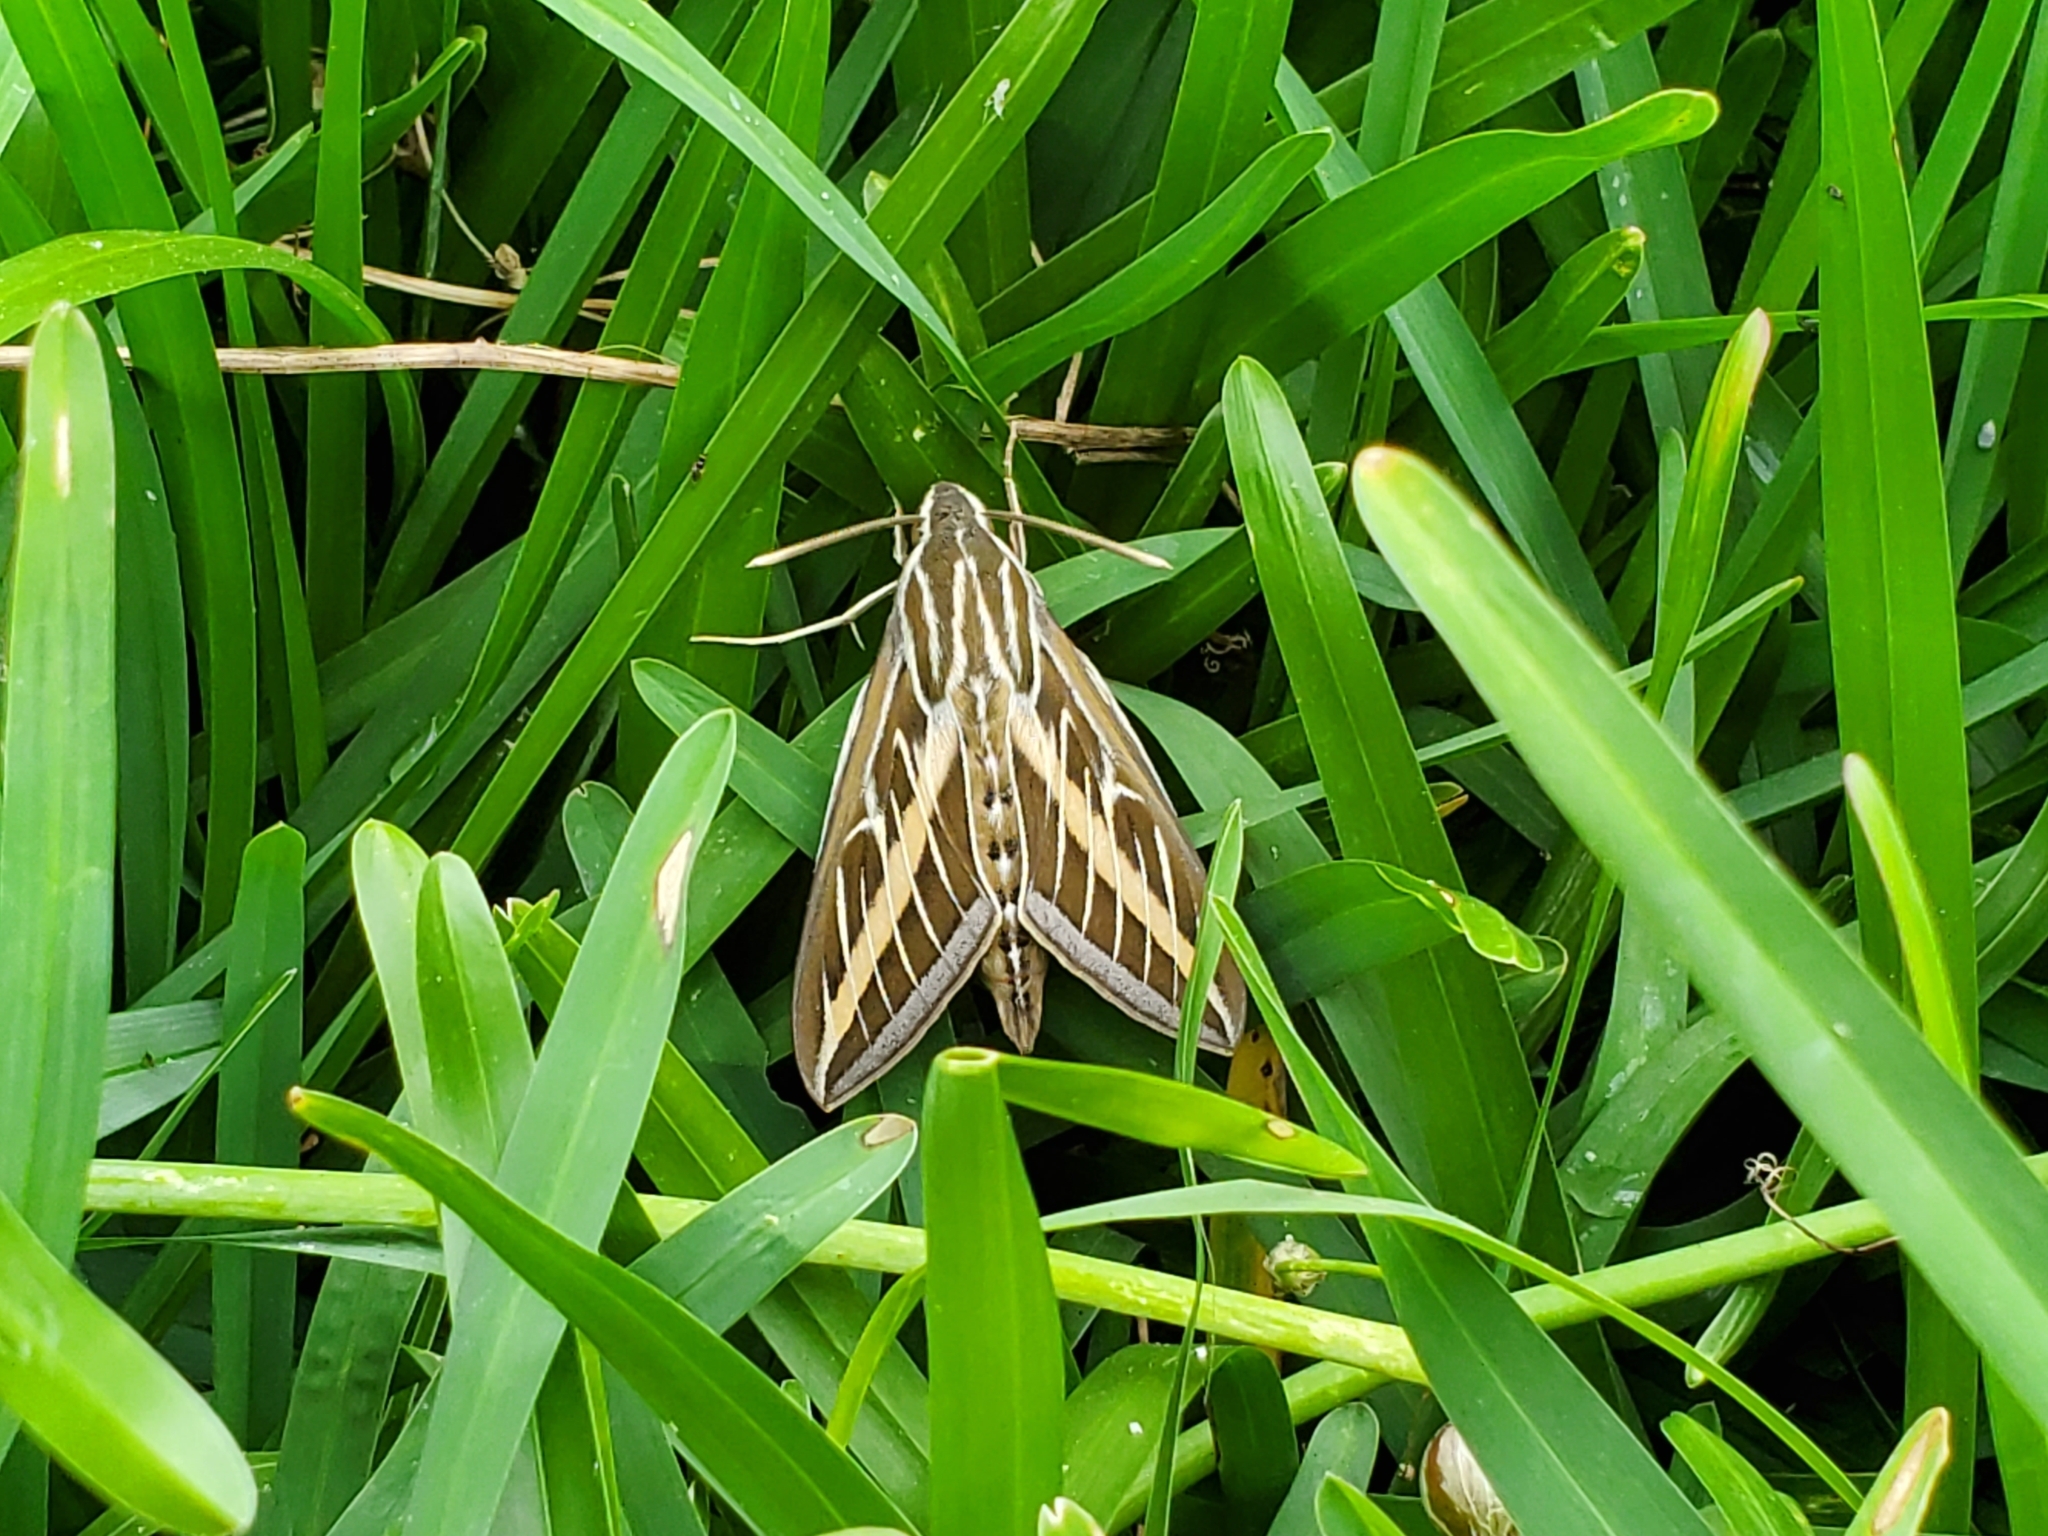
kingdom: Animalia
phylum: Arthropoda
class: Insecta
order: Lepidoptera
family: Sphingidae
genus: Hyles
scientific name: Hyles lineata
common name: White-lined sphinx
